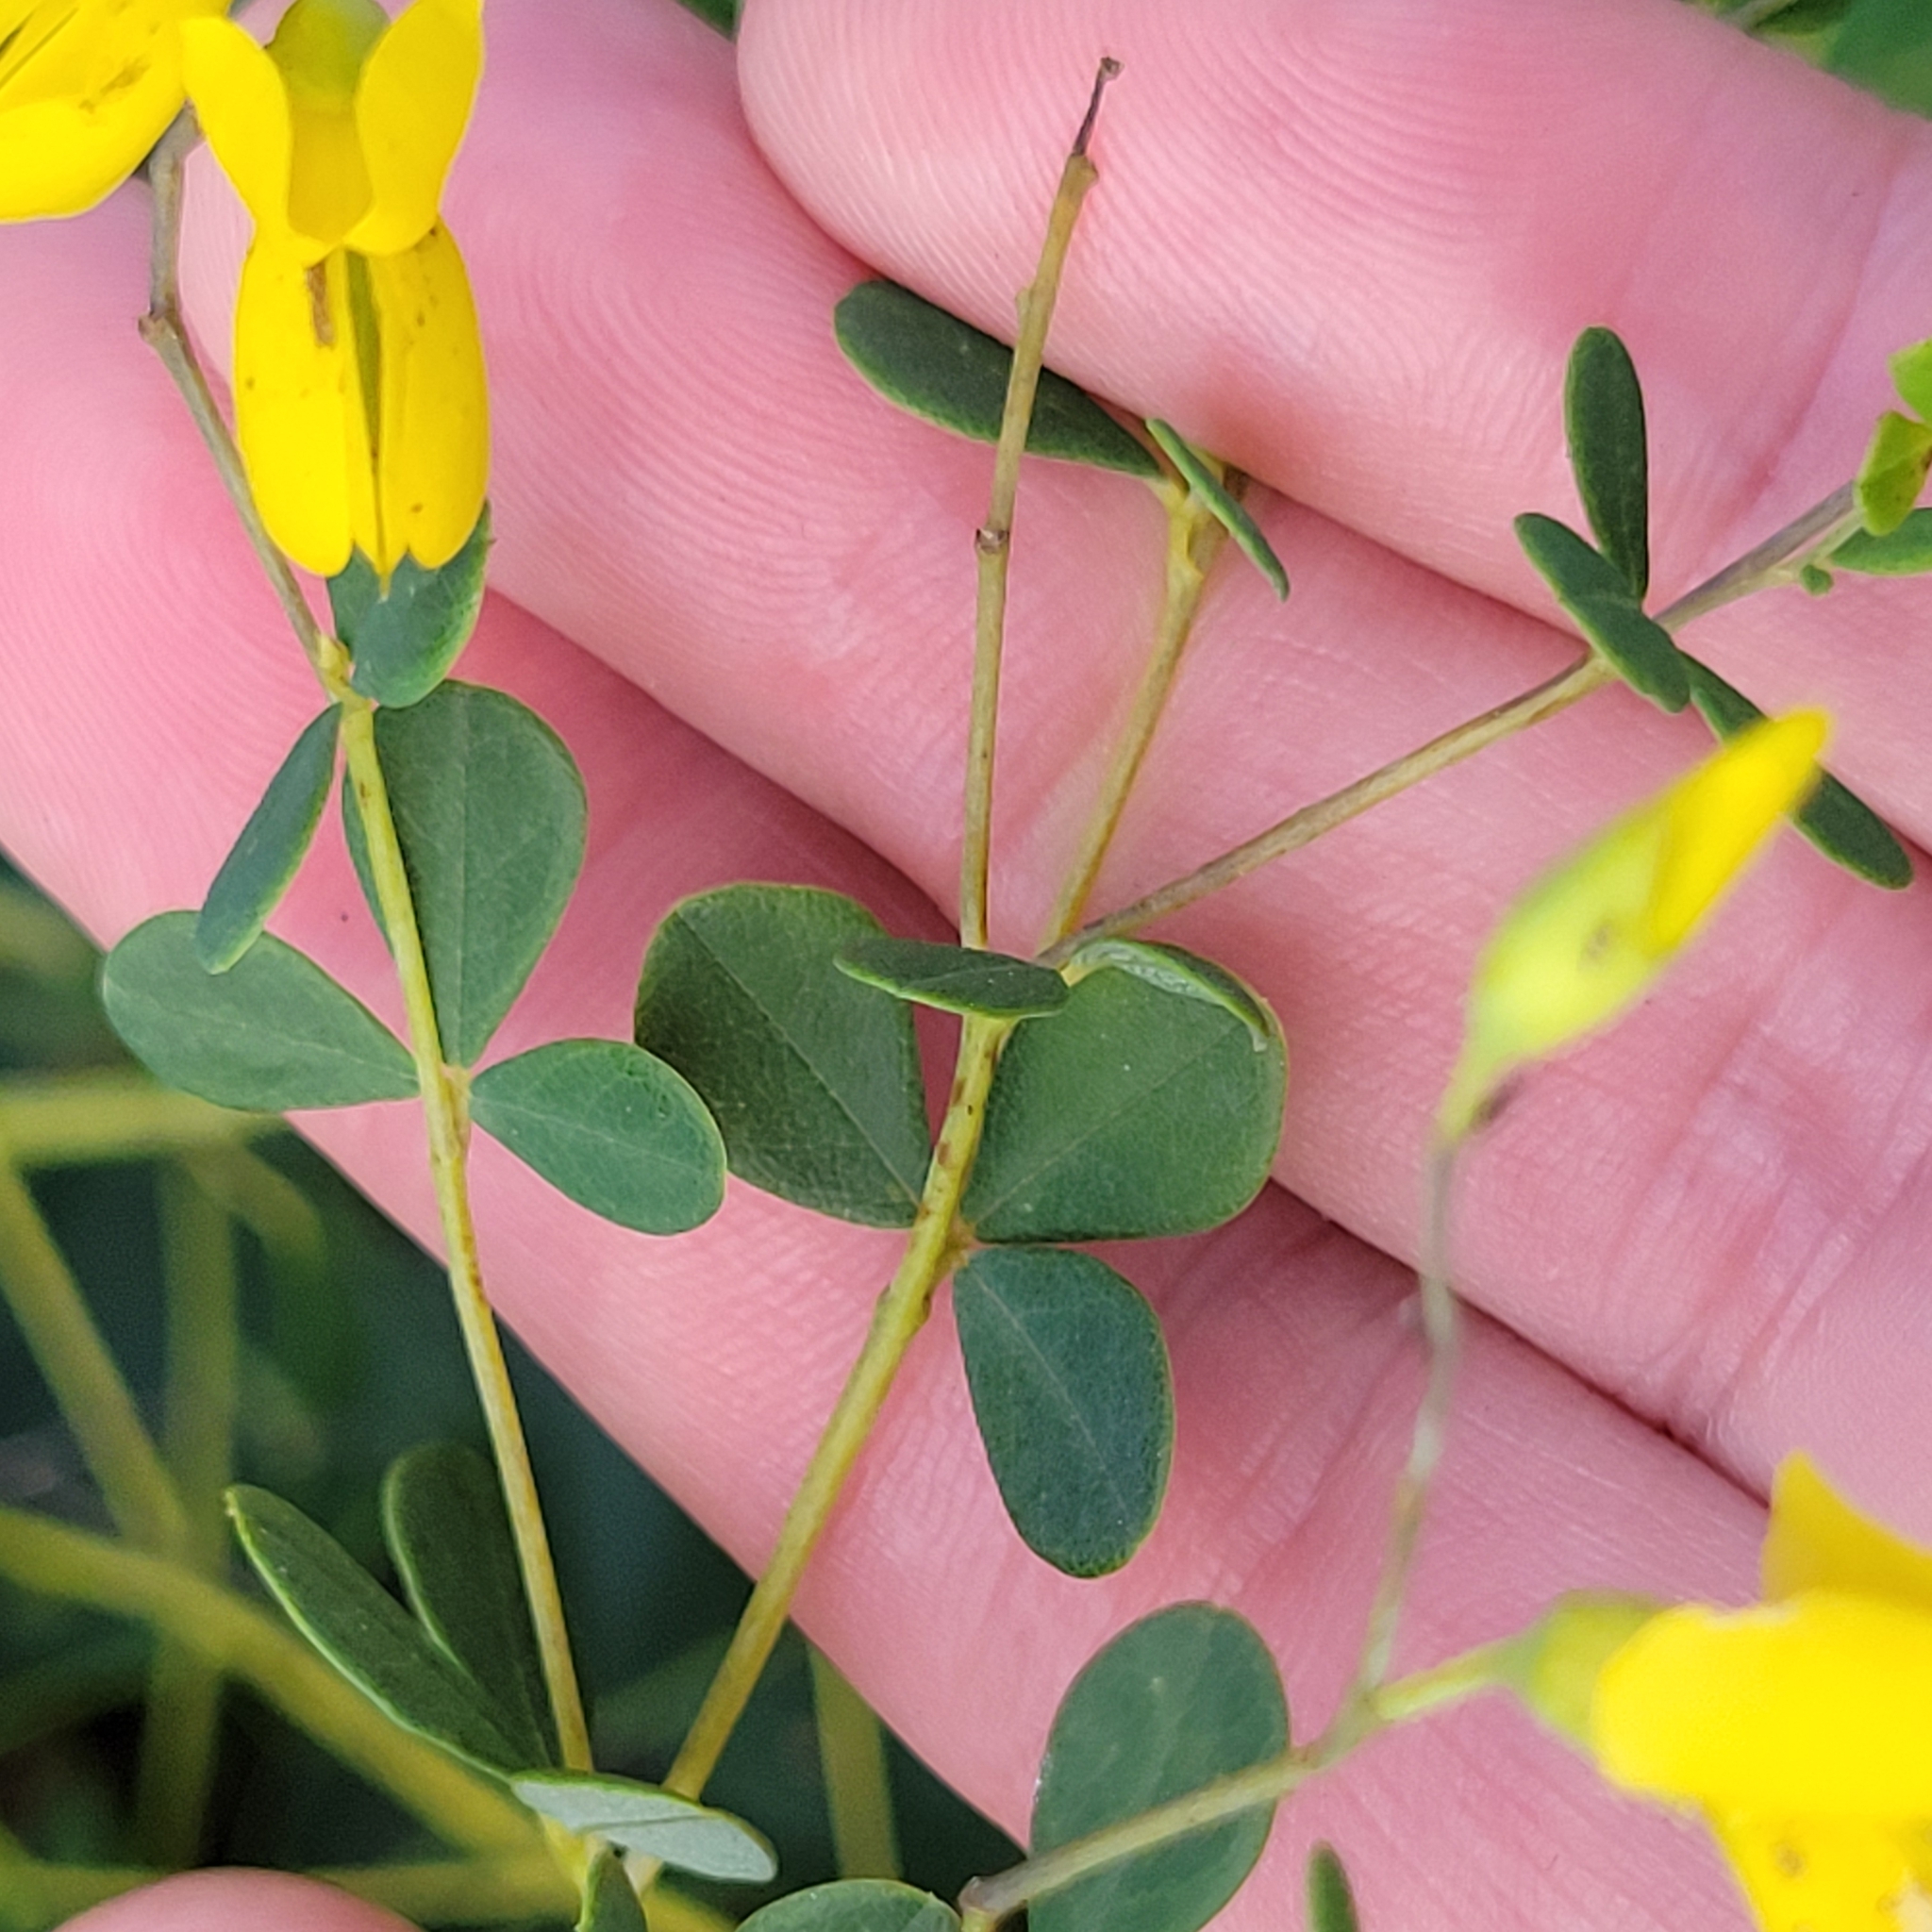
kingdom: Plantae
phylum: Tracheophyta
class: Magnoliopsida
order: Fabales
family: Fabaceae
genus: Baptisia
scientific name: Baptisia tinctoria
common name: Wild indigo
